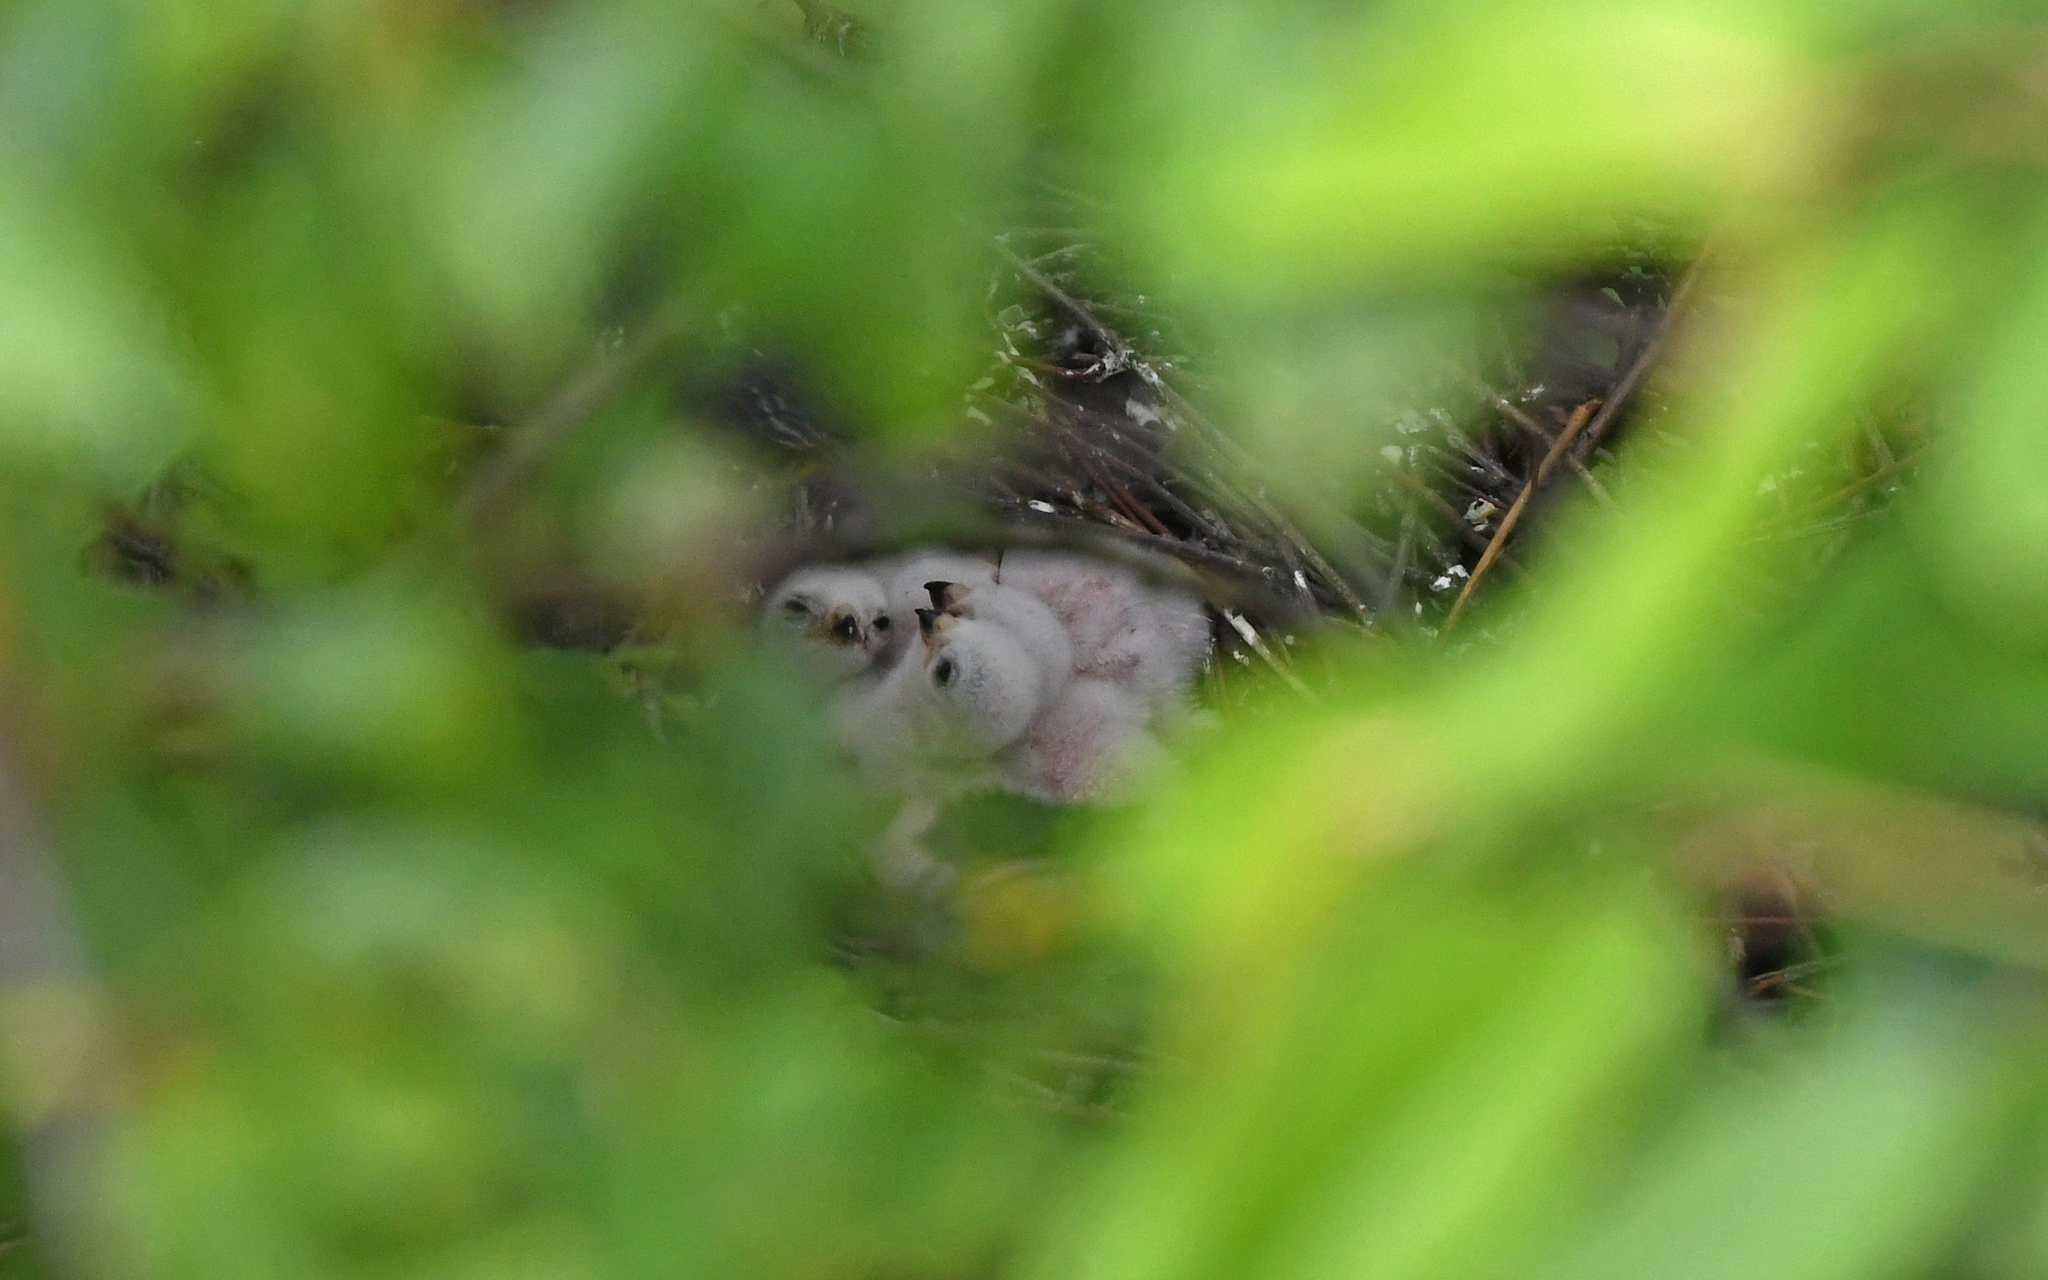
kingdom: Animalia
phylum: Chordata
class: Aves
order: Accipitriformes
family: Accipitridae
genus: Accipiter
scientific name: Accipiter nisus
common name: Eurasian sparrowhawk
